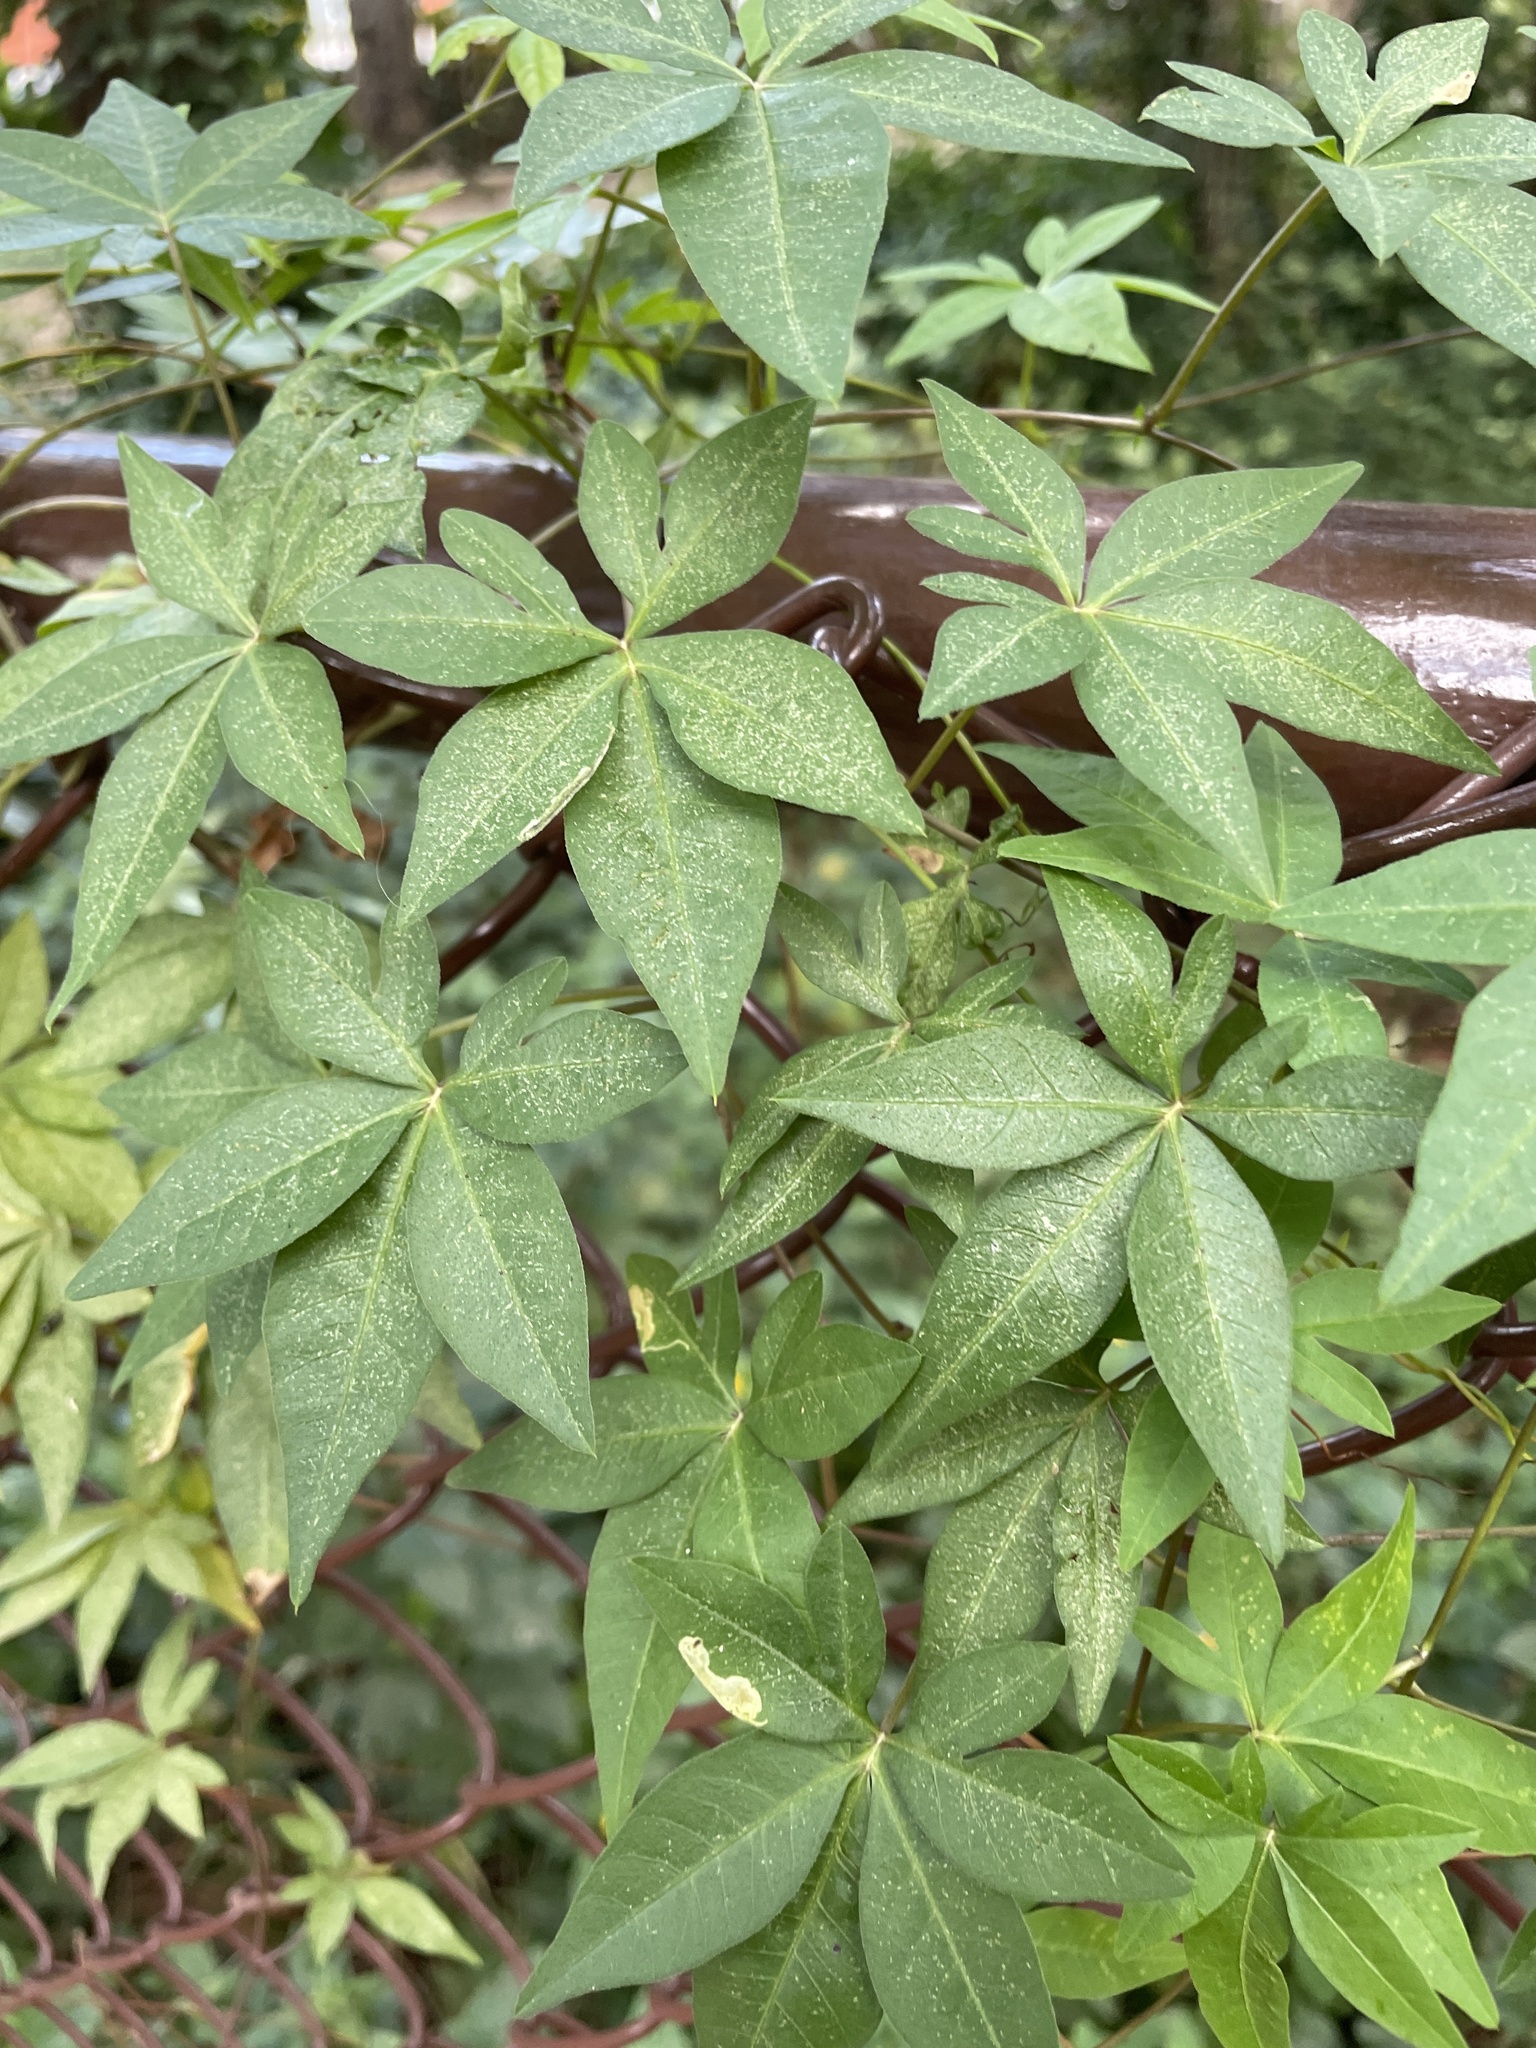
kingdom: Plantae
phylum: Tracheophyta
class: Magnoliopsida
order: Solanales
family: Convolvulaceae
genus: Ipomoea
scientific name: Ipomoea cairica
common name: Mile a minute vine
